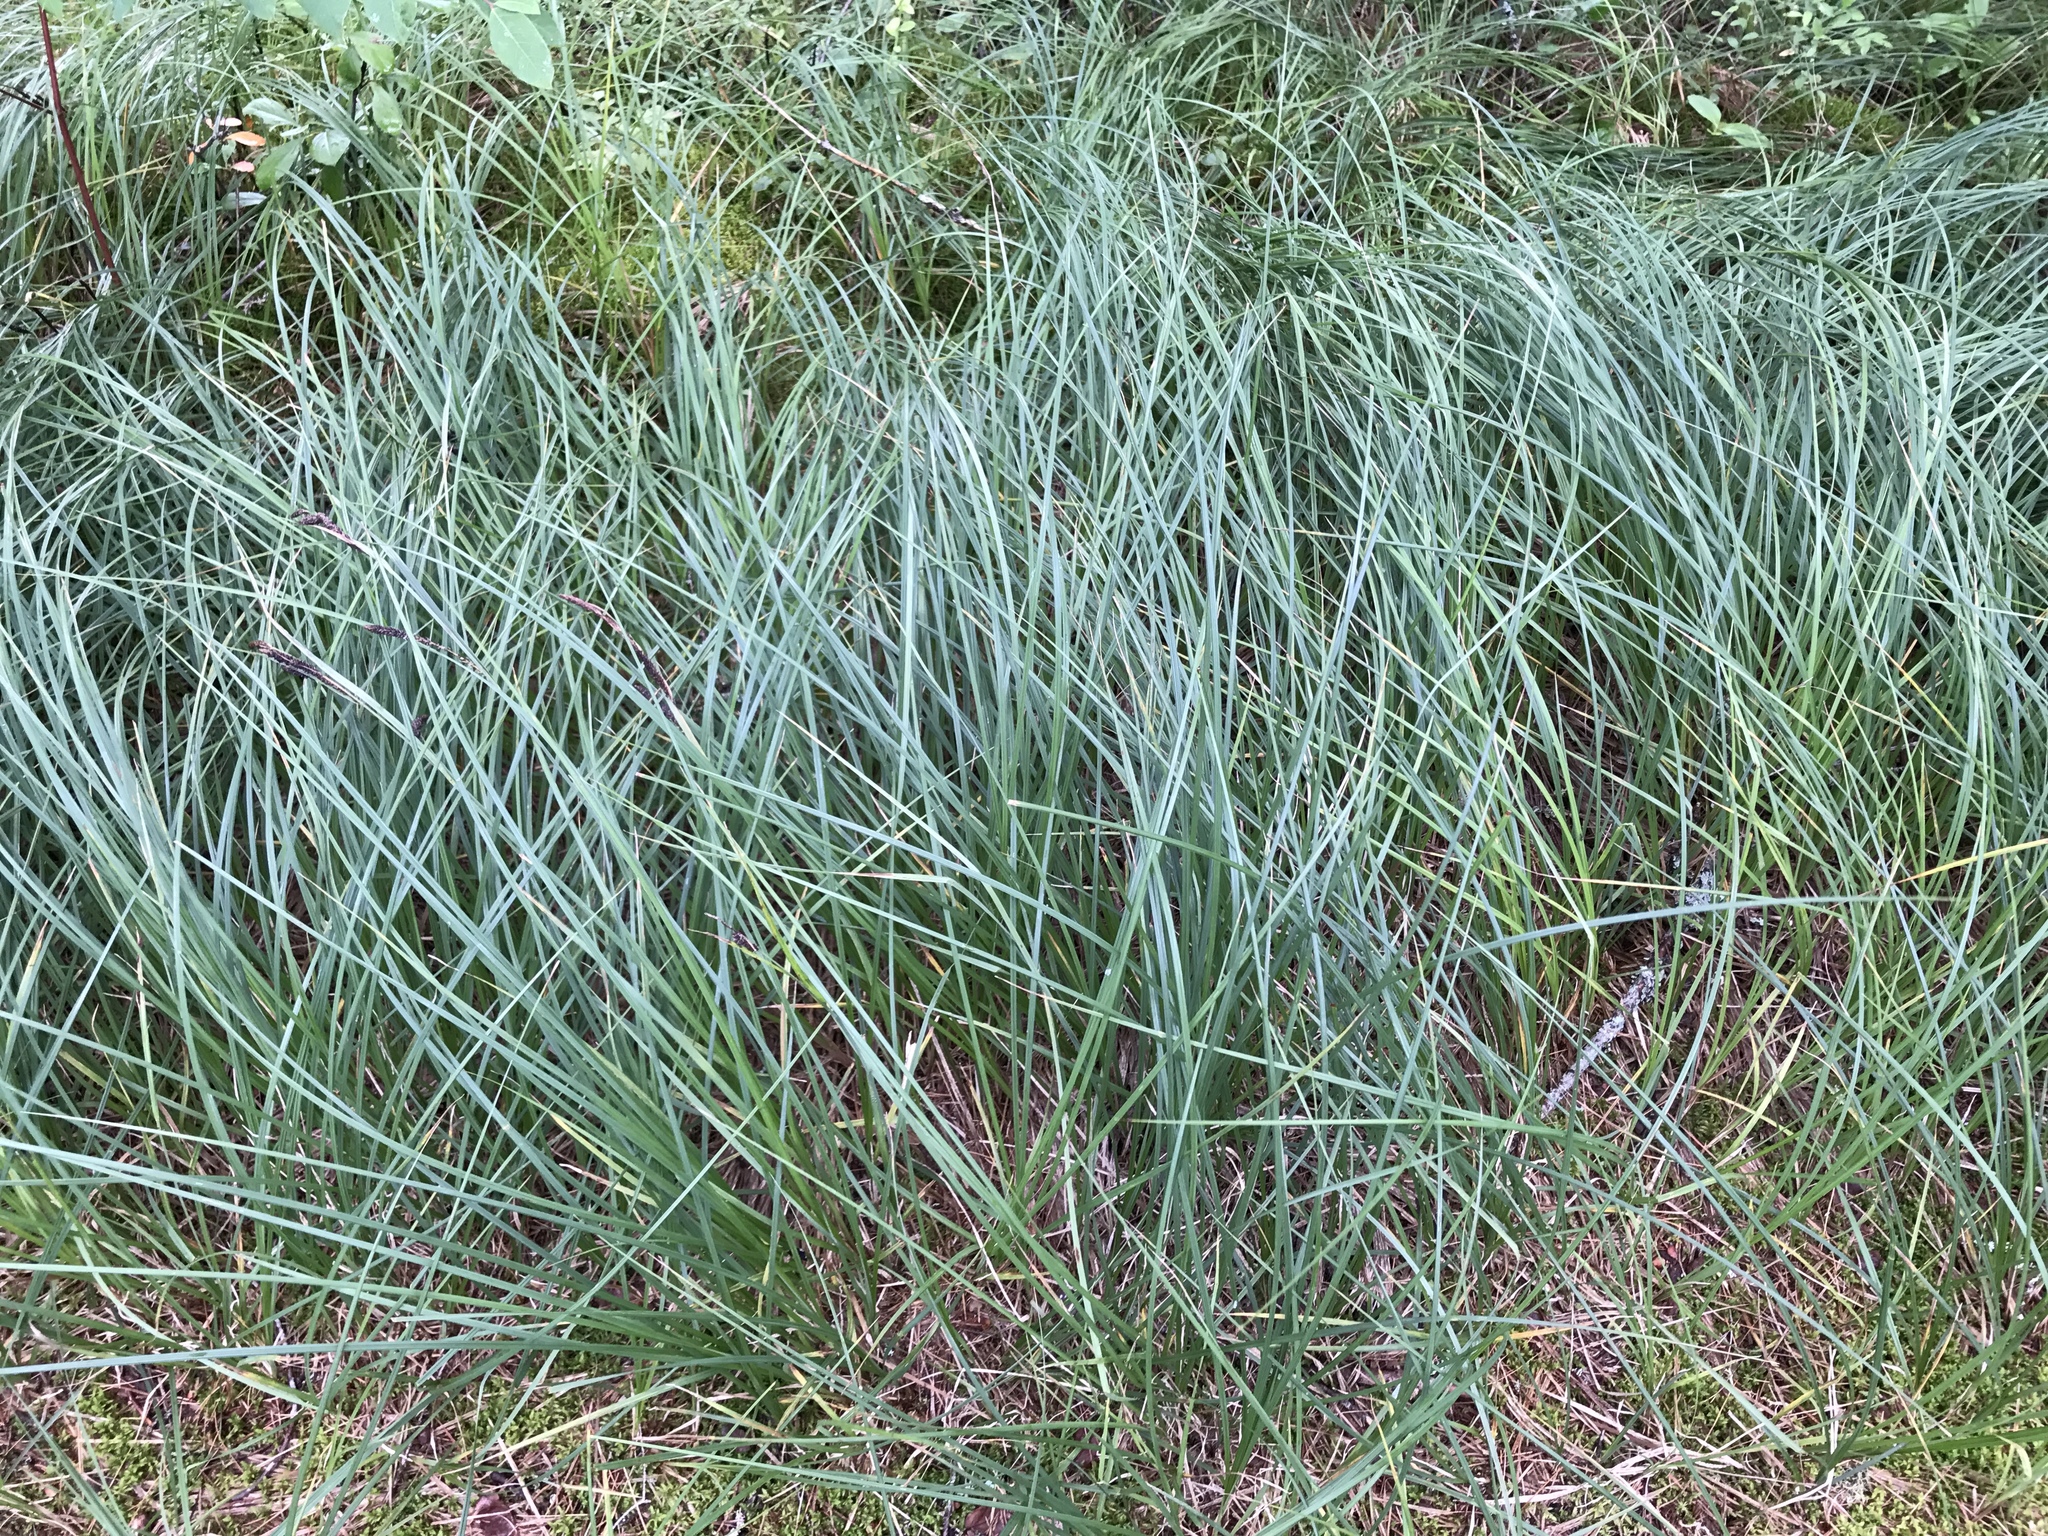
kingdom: Plantae
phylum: Tracheophyta
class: Liliopsida
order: Poales
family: Cyperaceae
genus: Carex
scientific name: Carex stricta
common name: Hummock sedge
